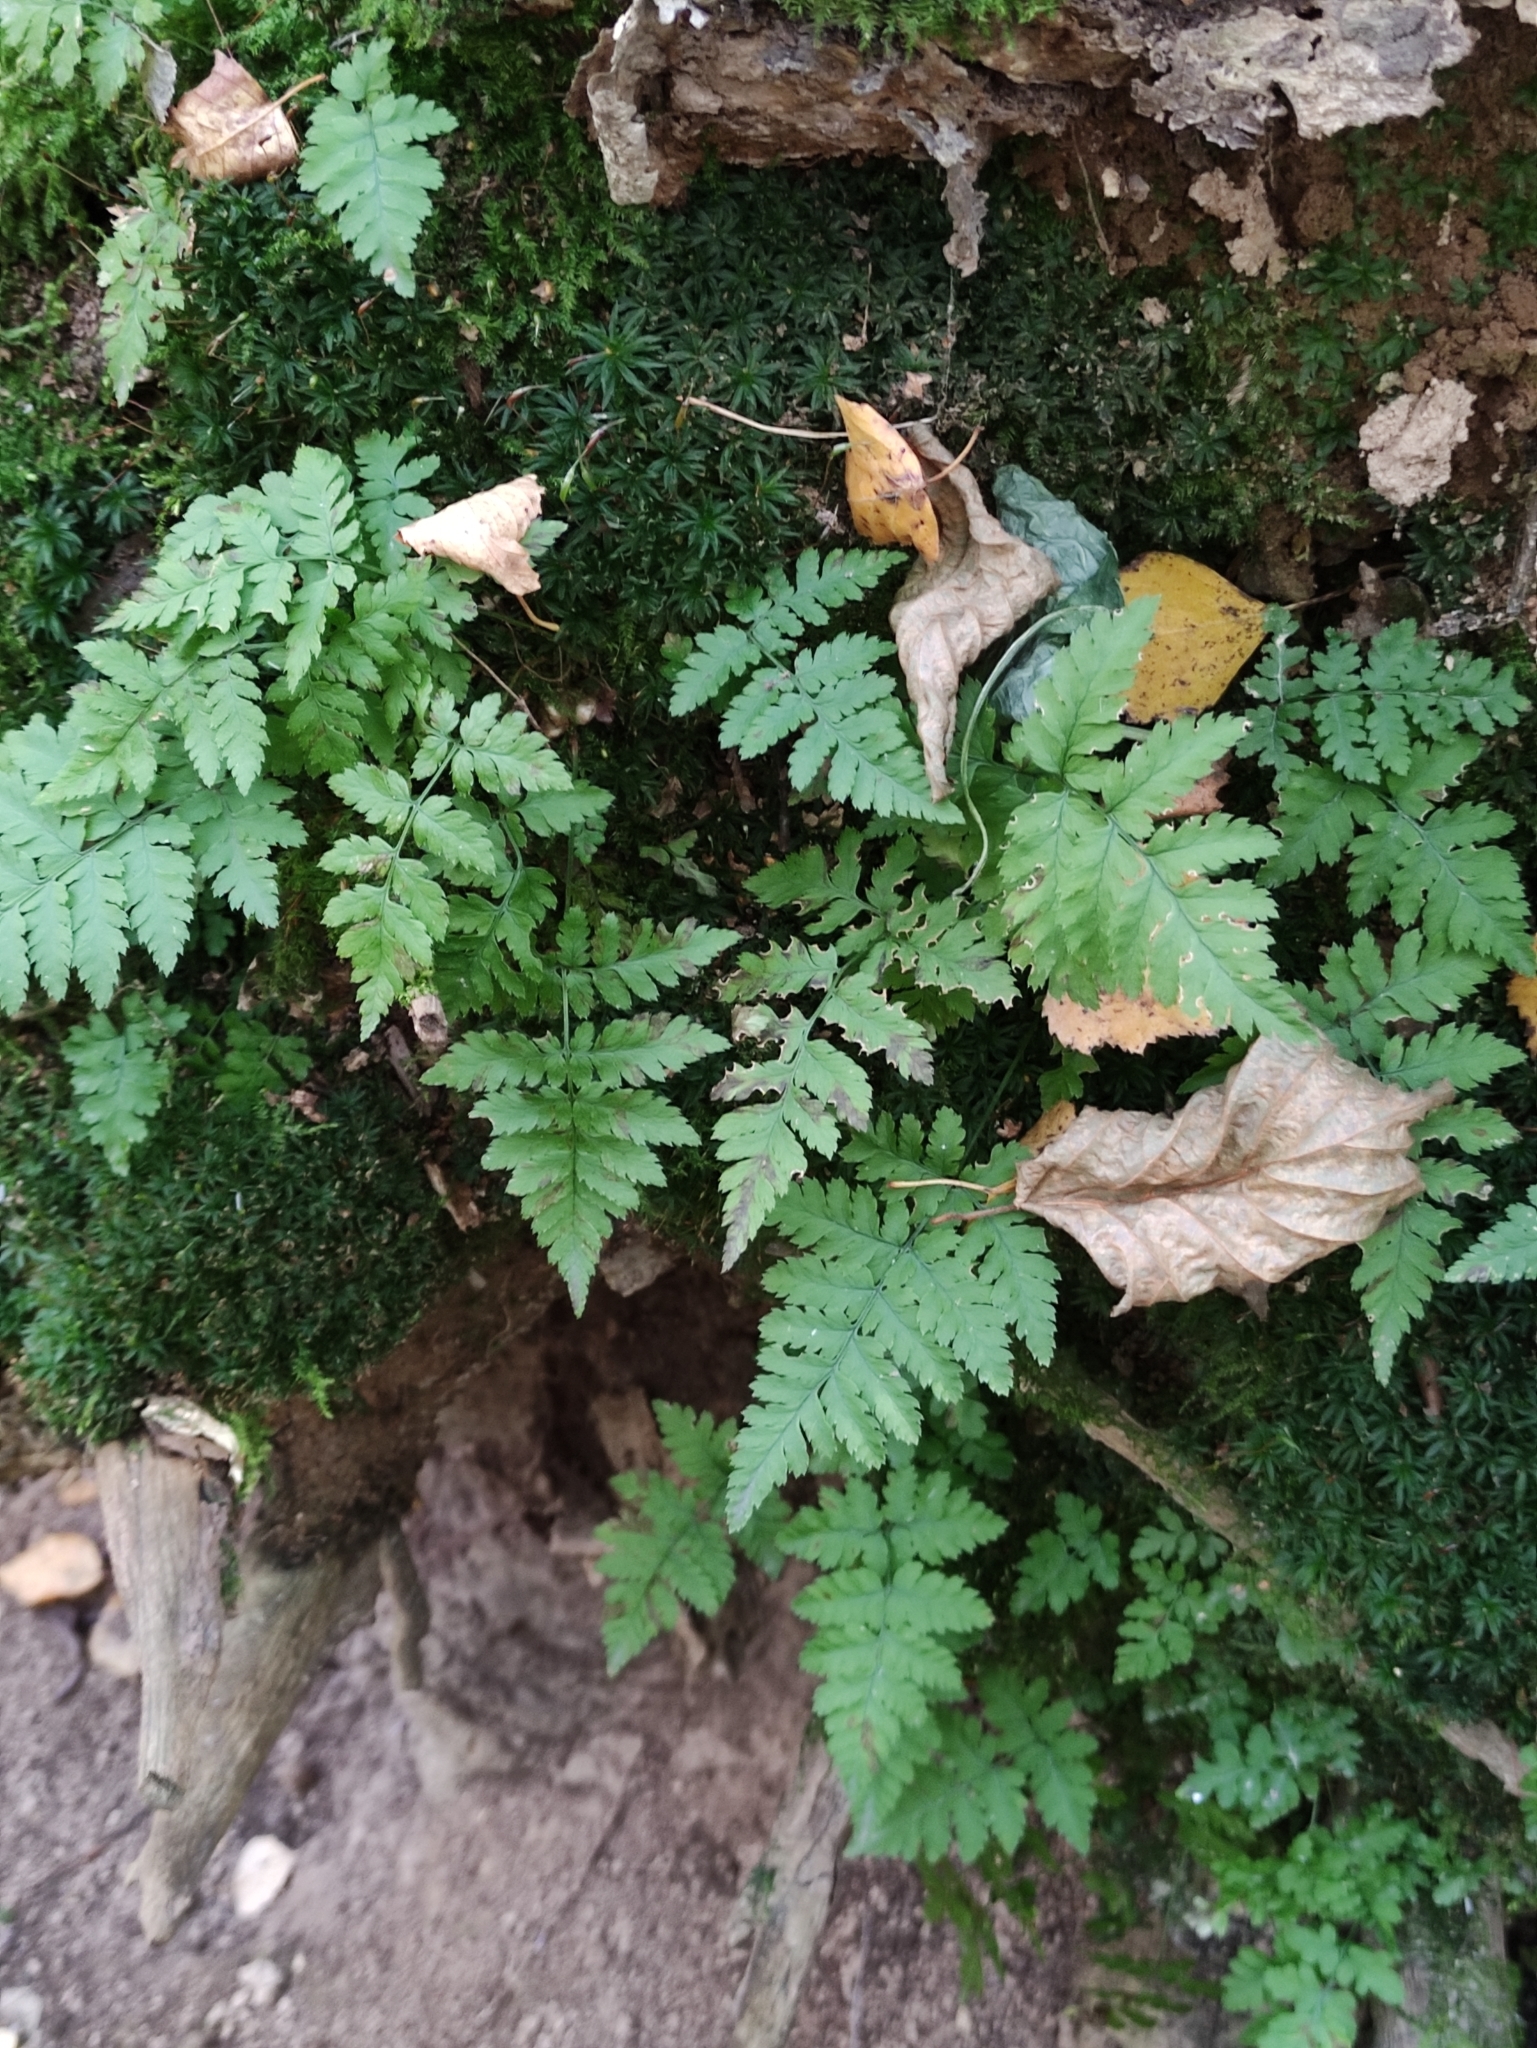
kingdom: Plantae
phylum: Tracheophyta
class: Polypodiopsida
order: Polypodiales
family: Dryopteridaceae
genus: Dryopteris
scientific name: Dryopteris carthusiana
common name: Narrow buckler-fern
